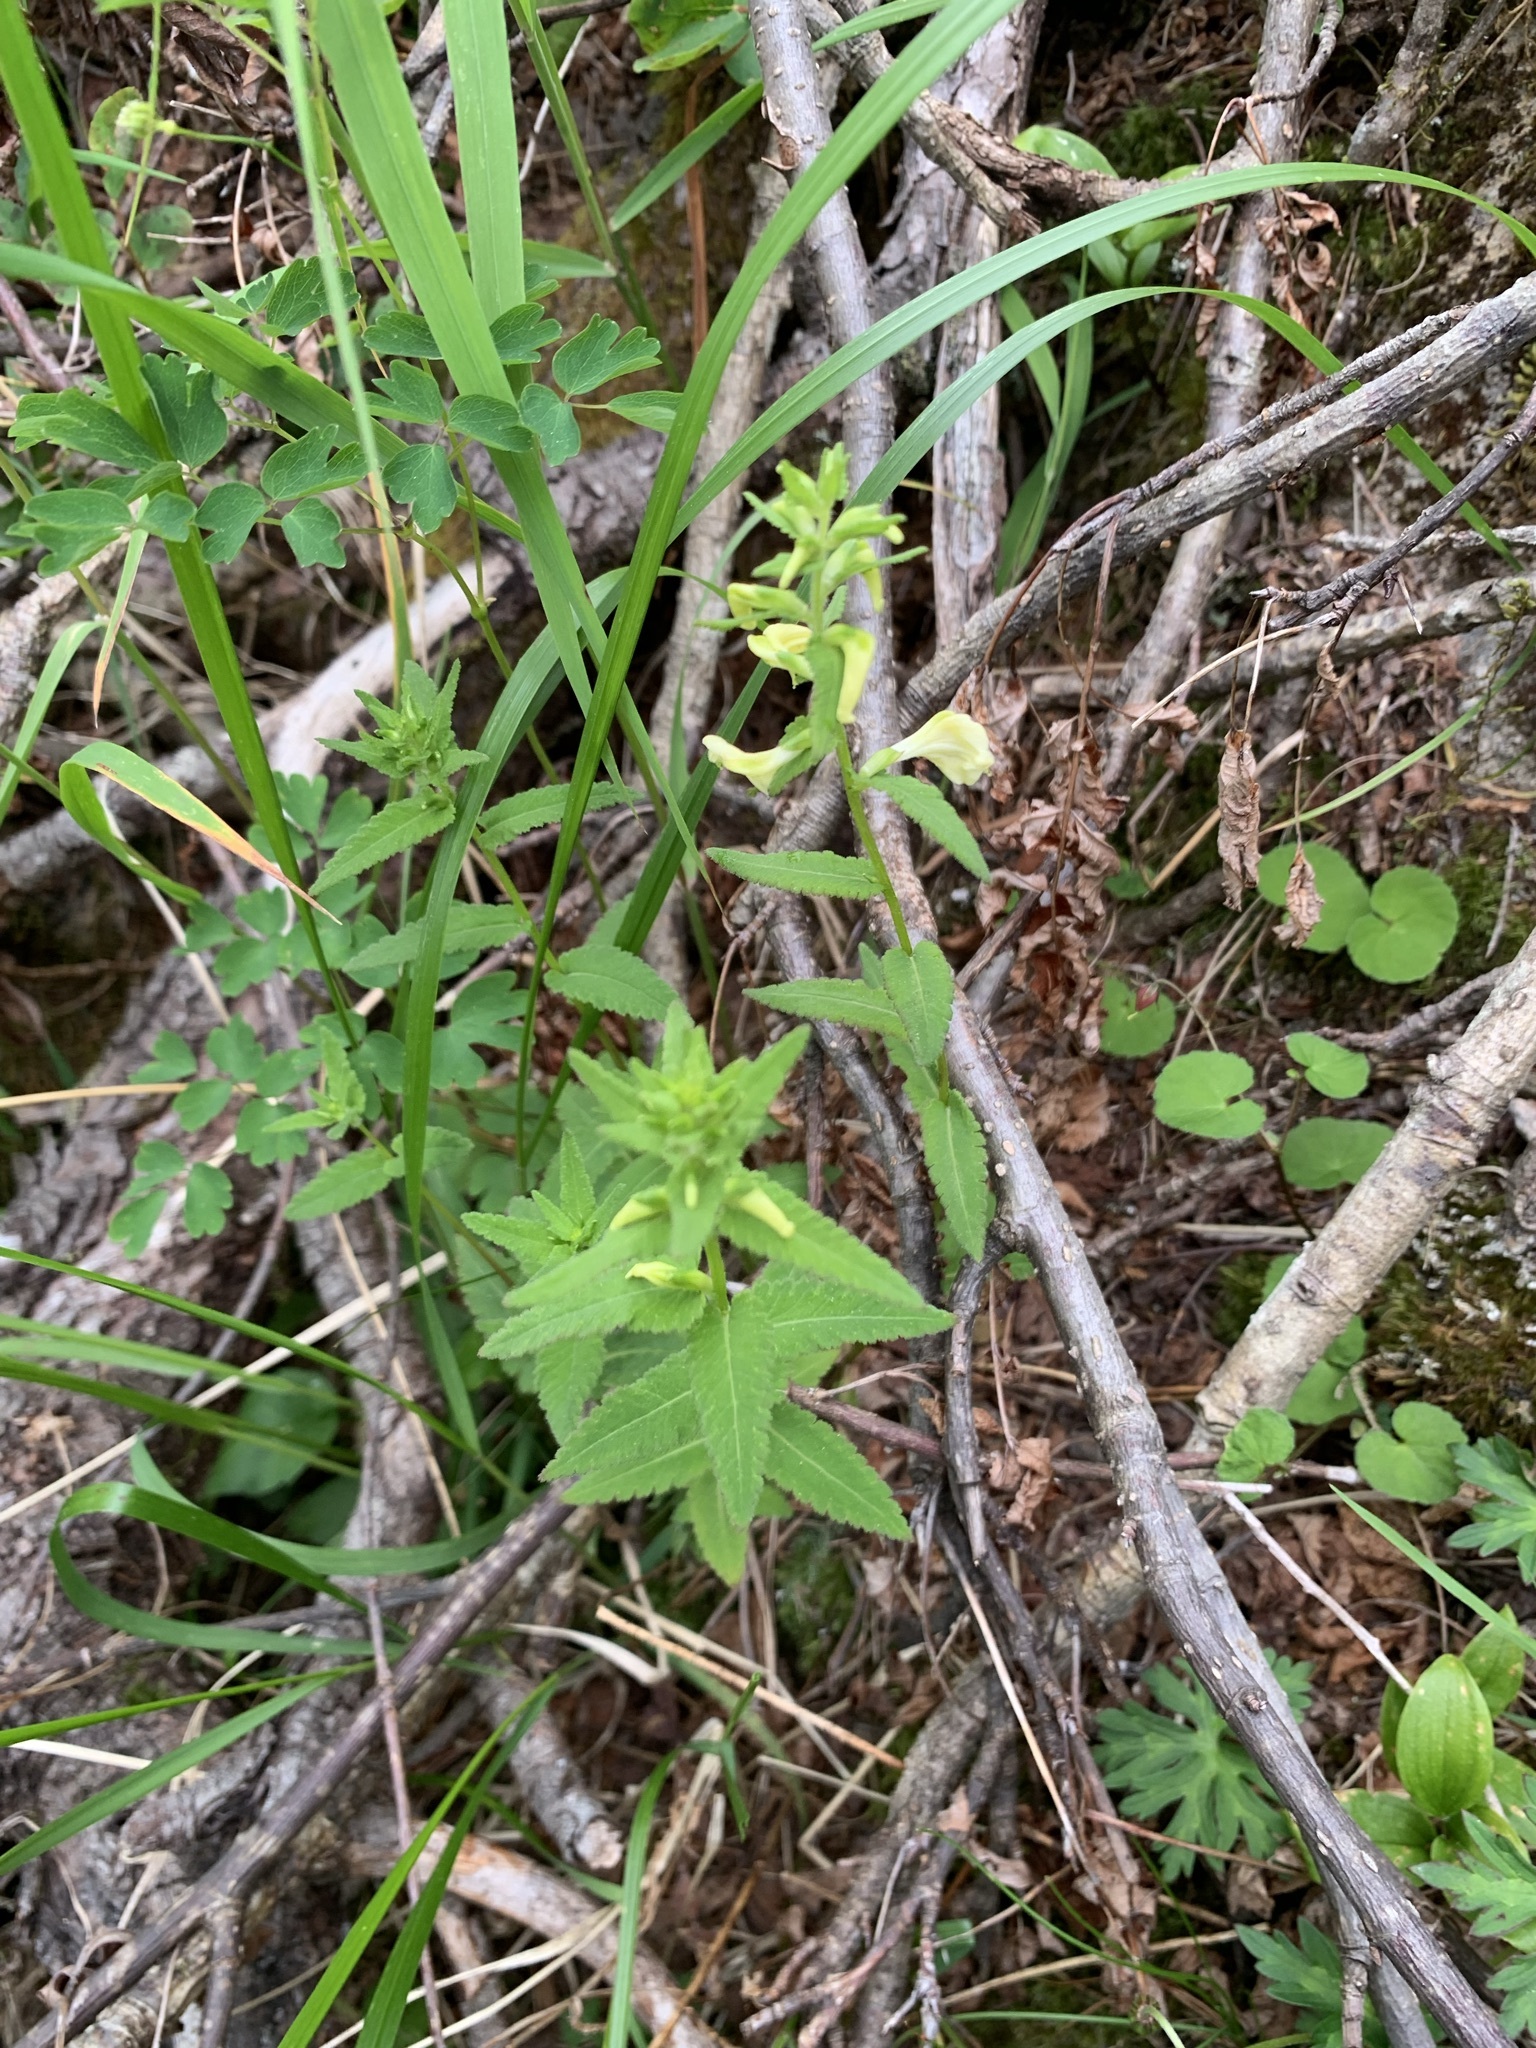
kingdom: Plantae
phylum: Tracheophyta
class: Magnoliopsida
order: Lamiales
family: Orobanchaceae
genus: Pedicularis
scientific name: Pedicularis yezoensis
